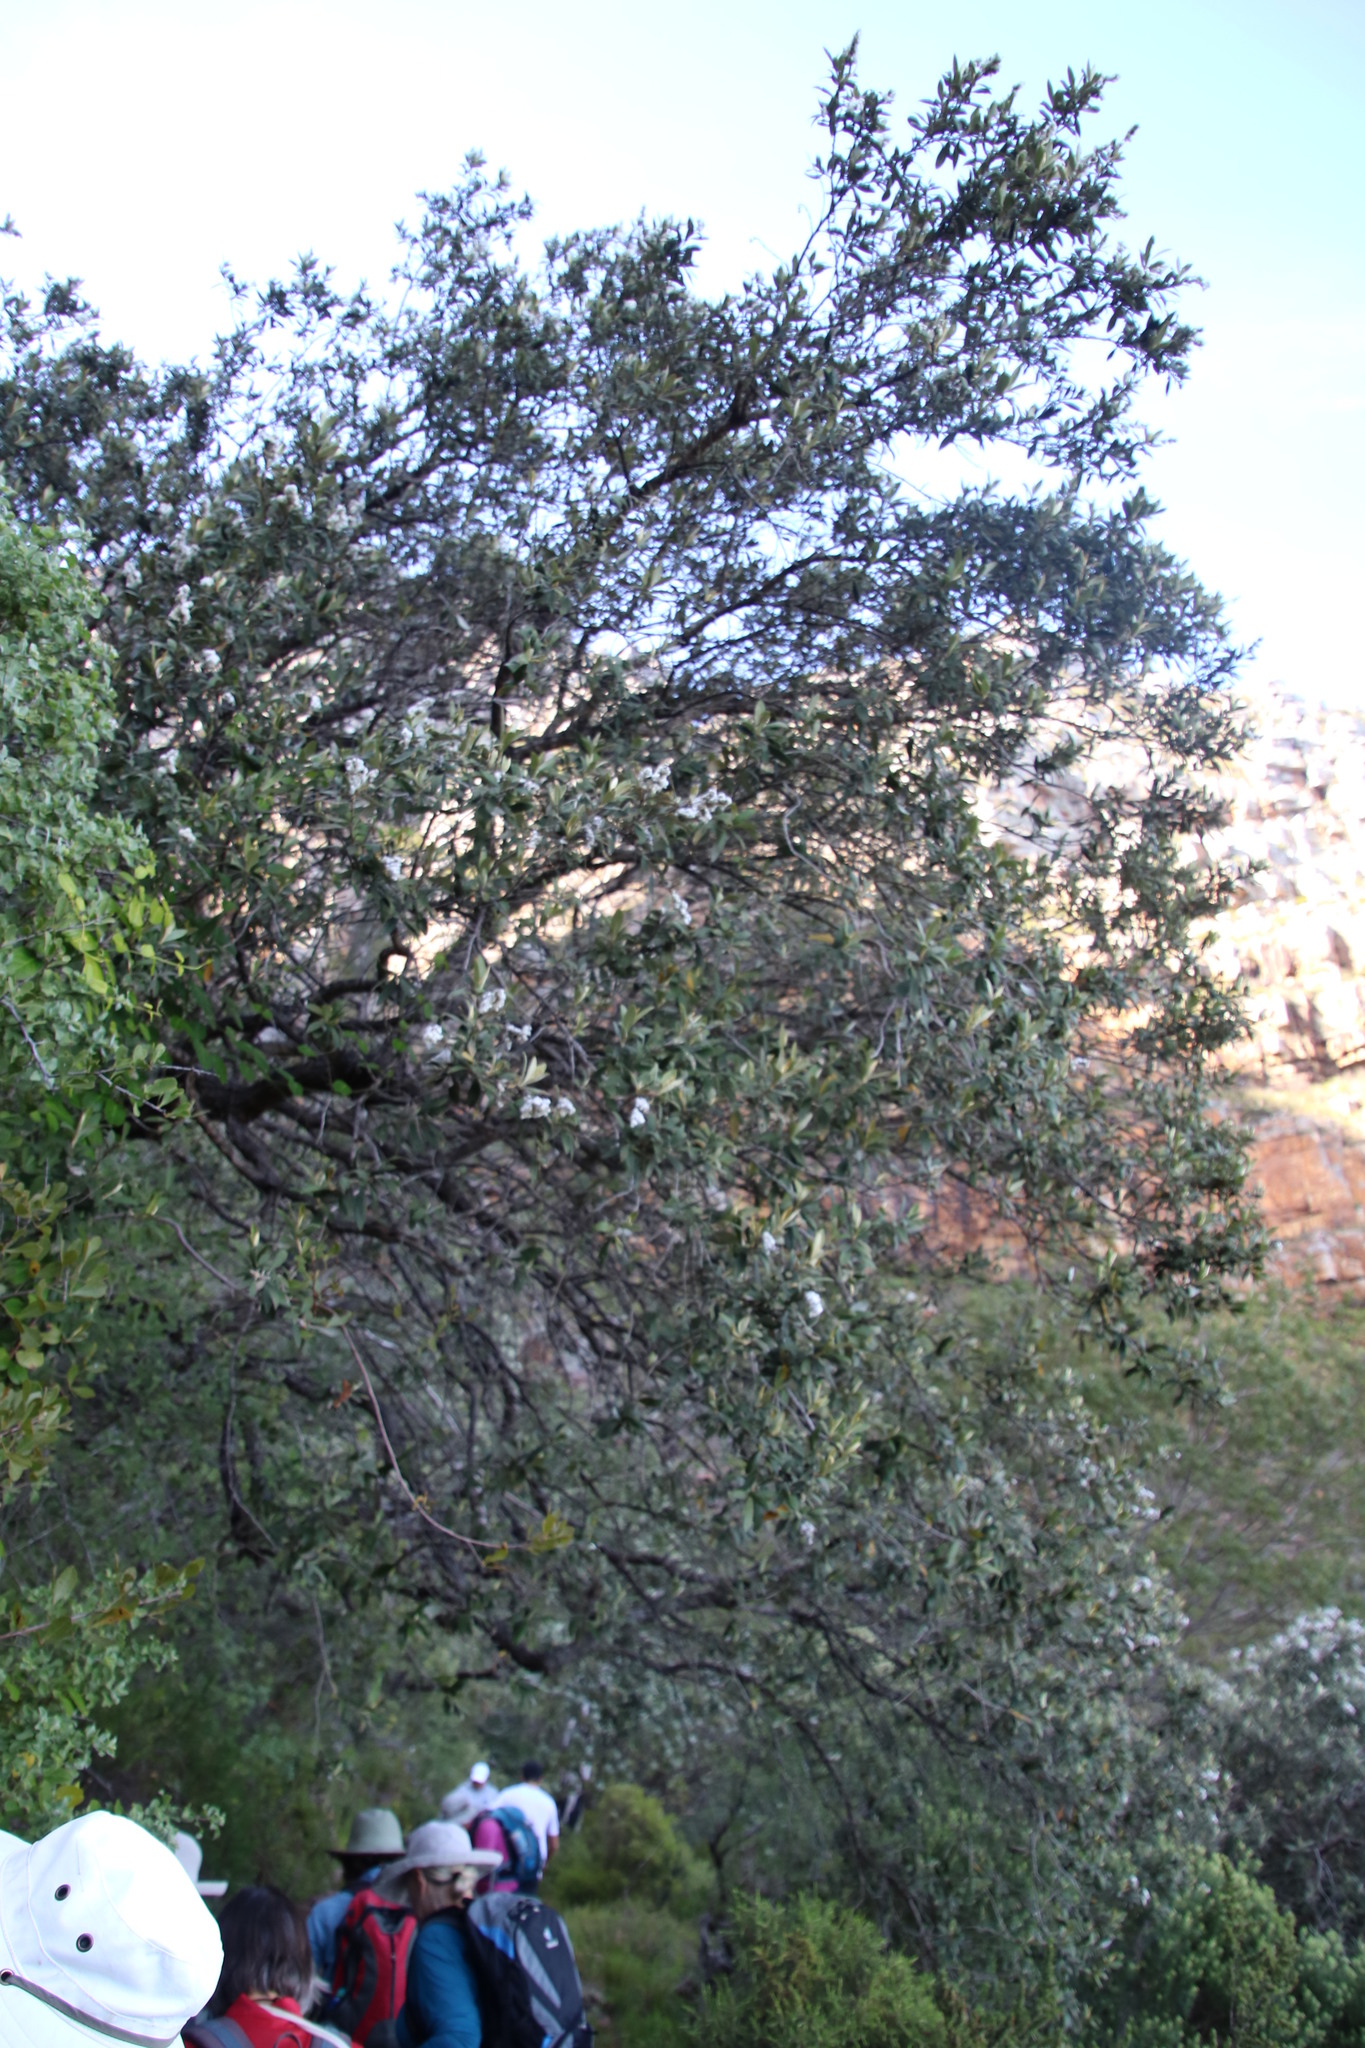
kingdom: Plantae
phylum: Tracheophyta
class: Magnoliopsida
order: Asterales
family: Asteraceae
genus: Tarchonanthus
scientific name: Tarchonanthus littoralis
